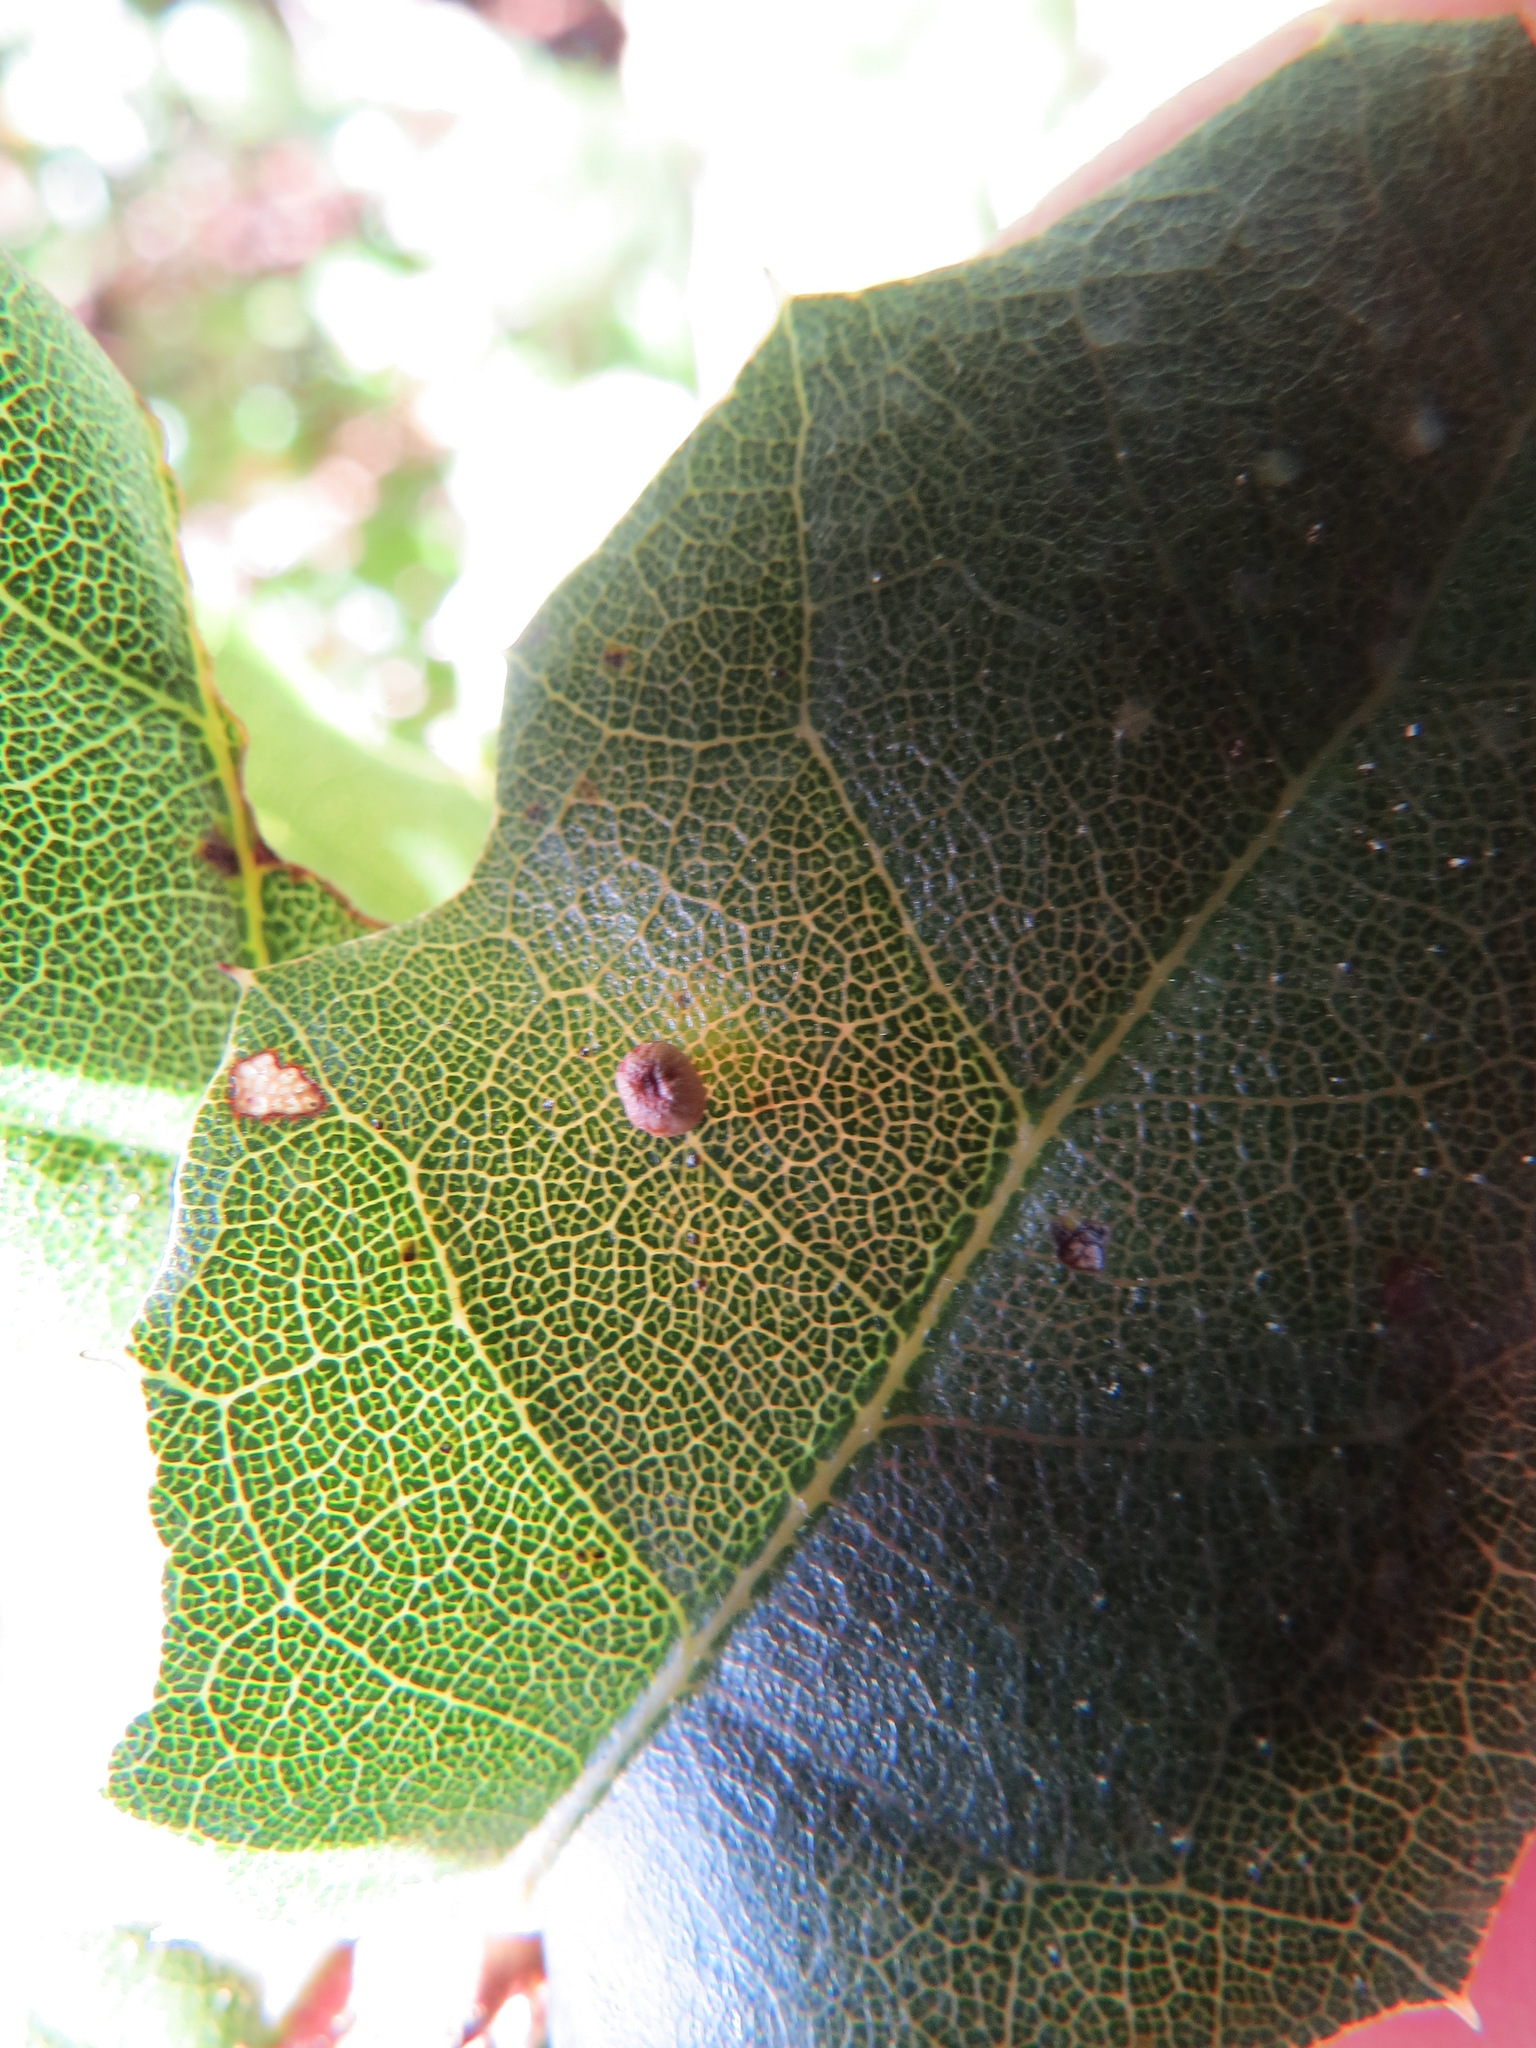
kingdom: Animalia
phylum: Arthropoda
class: Insecta
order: Hymenoptera
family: Cynipidae
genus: Dryocosmus
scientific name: Dryocosmus
